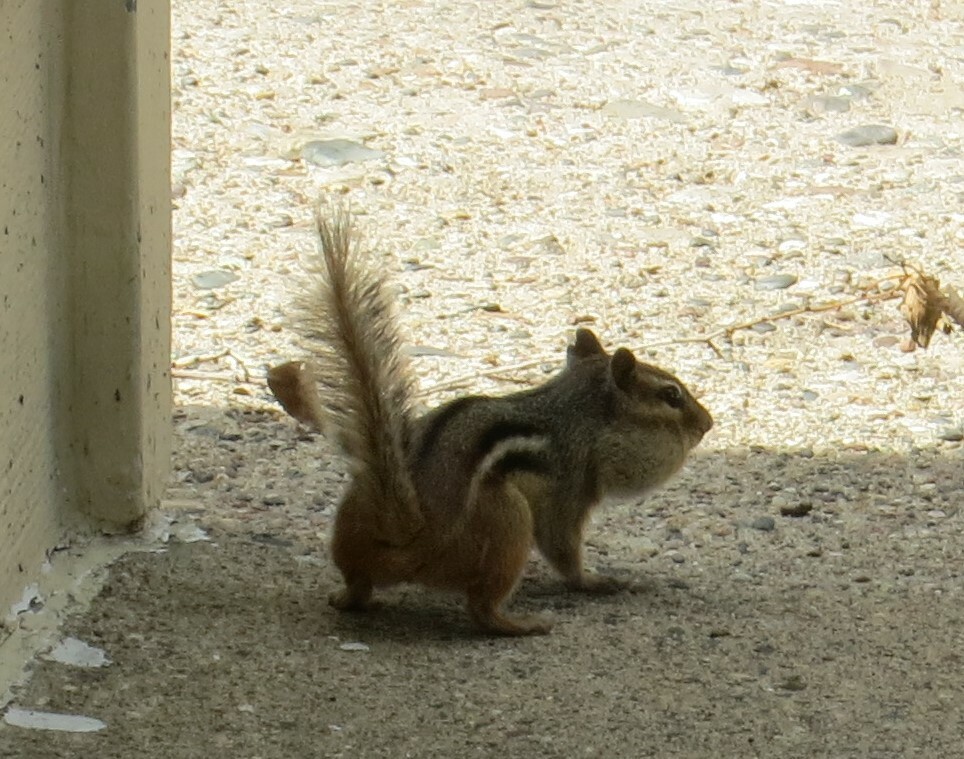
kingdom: Animalia
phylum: Chordata
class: Mammalia
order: Rodentia
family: Sciuridae
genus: Tamias
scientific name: Tamias striatus
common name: Eastern chipmunk
